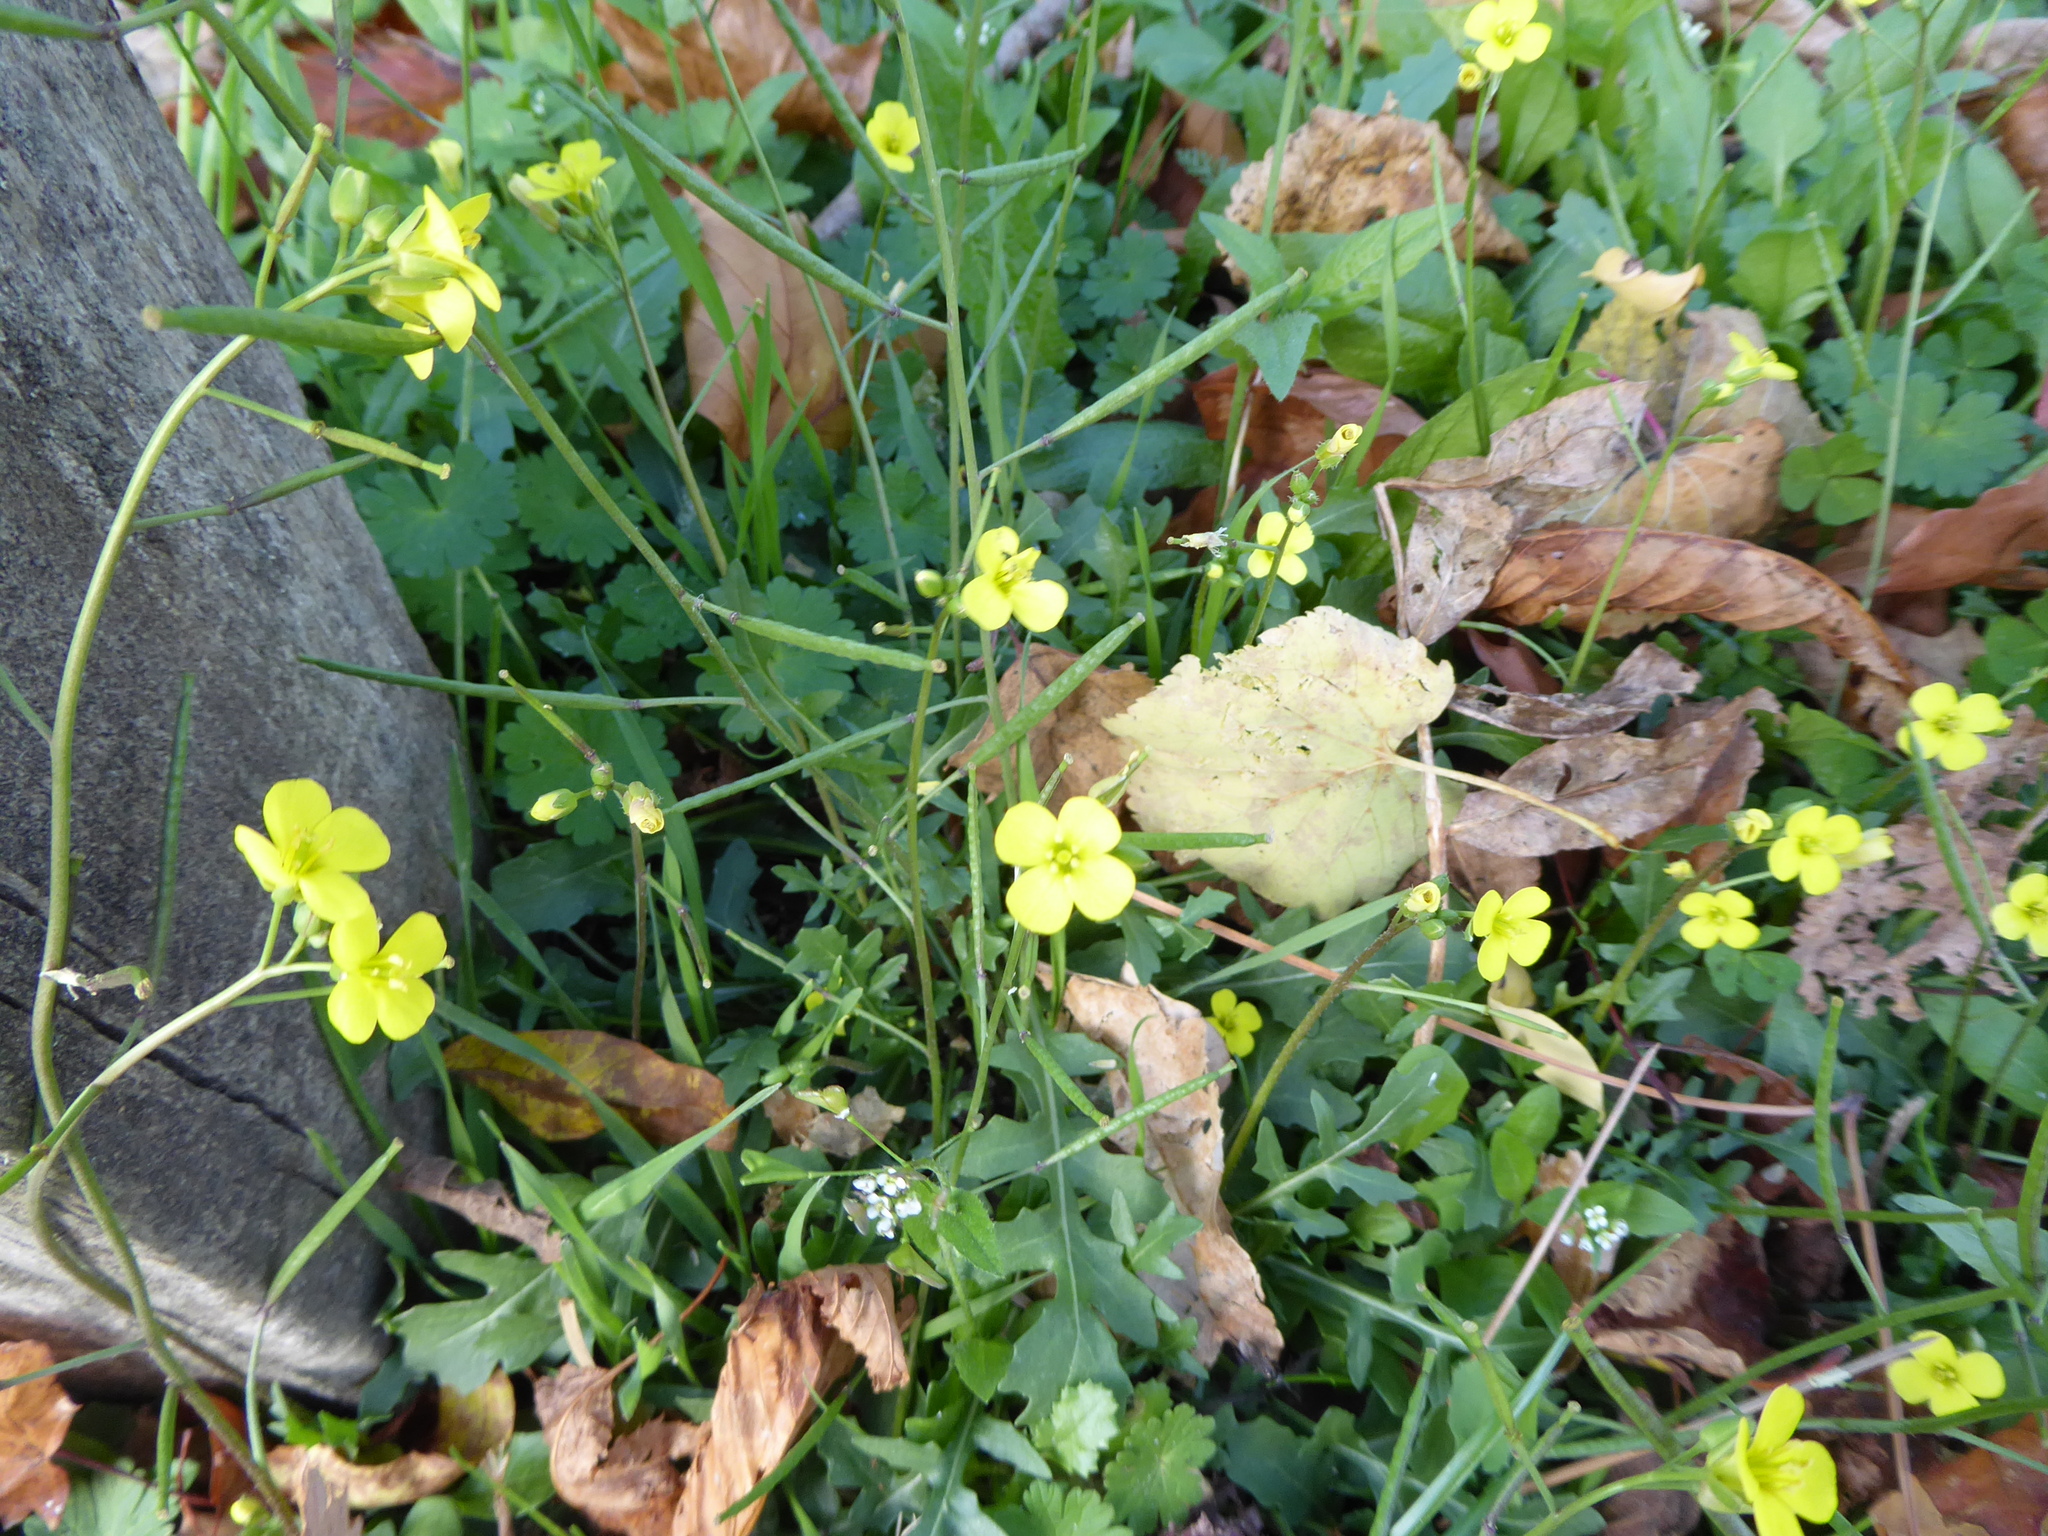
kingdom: Plantae
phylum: Tracheophyta
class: Magnoliopsida
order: Brassicales
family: Brassicaceae
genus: Diplotaxis
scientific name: Diplotaxis muralis
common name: Annual wall-rocket
